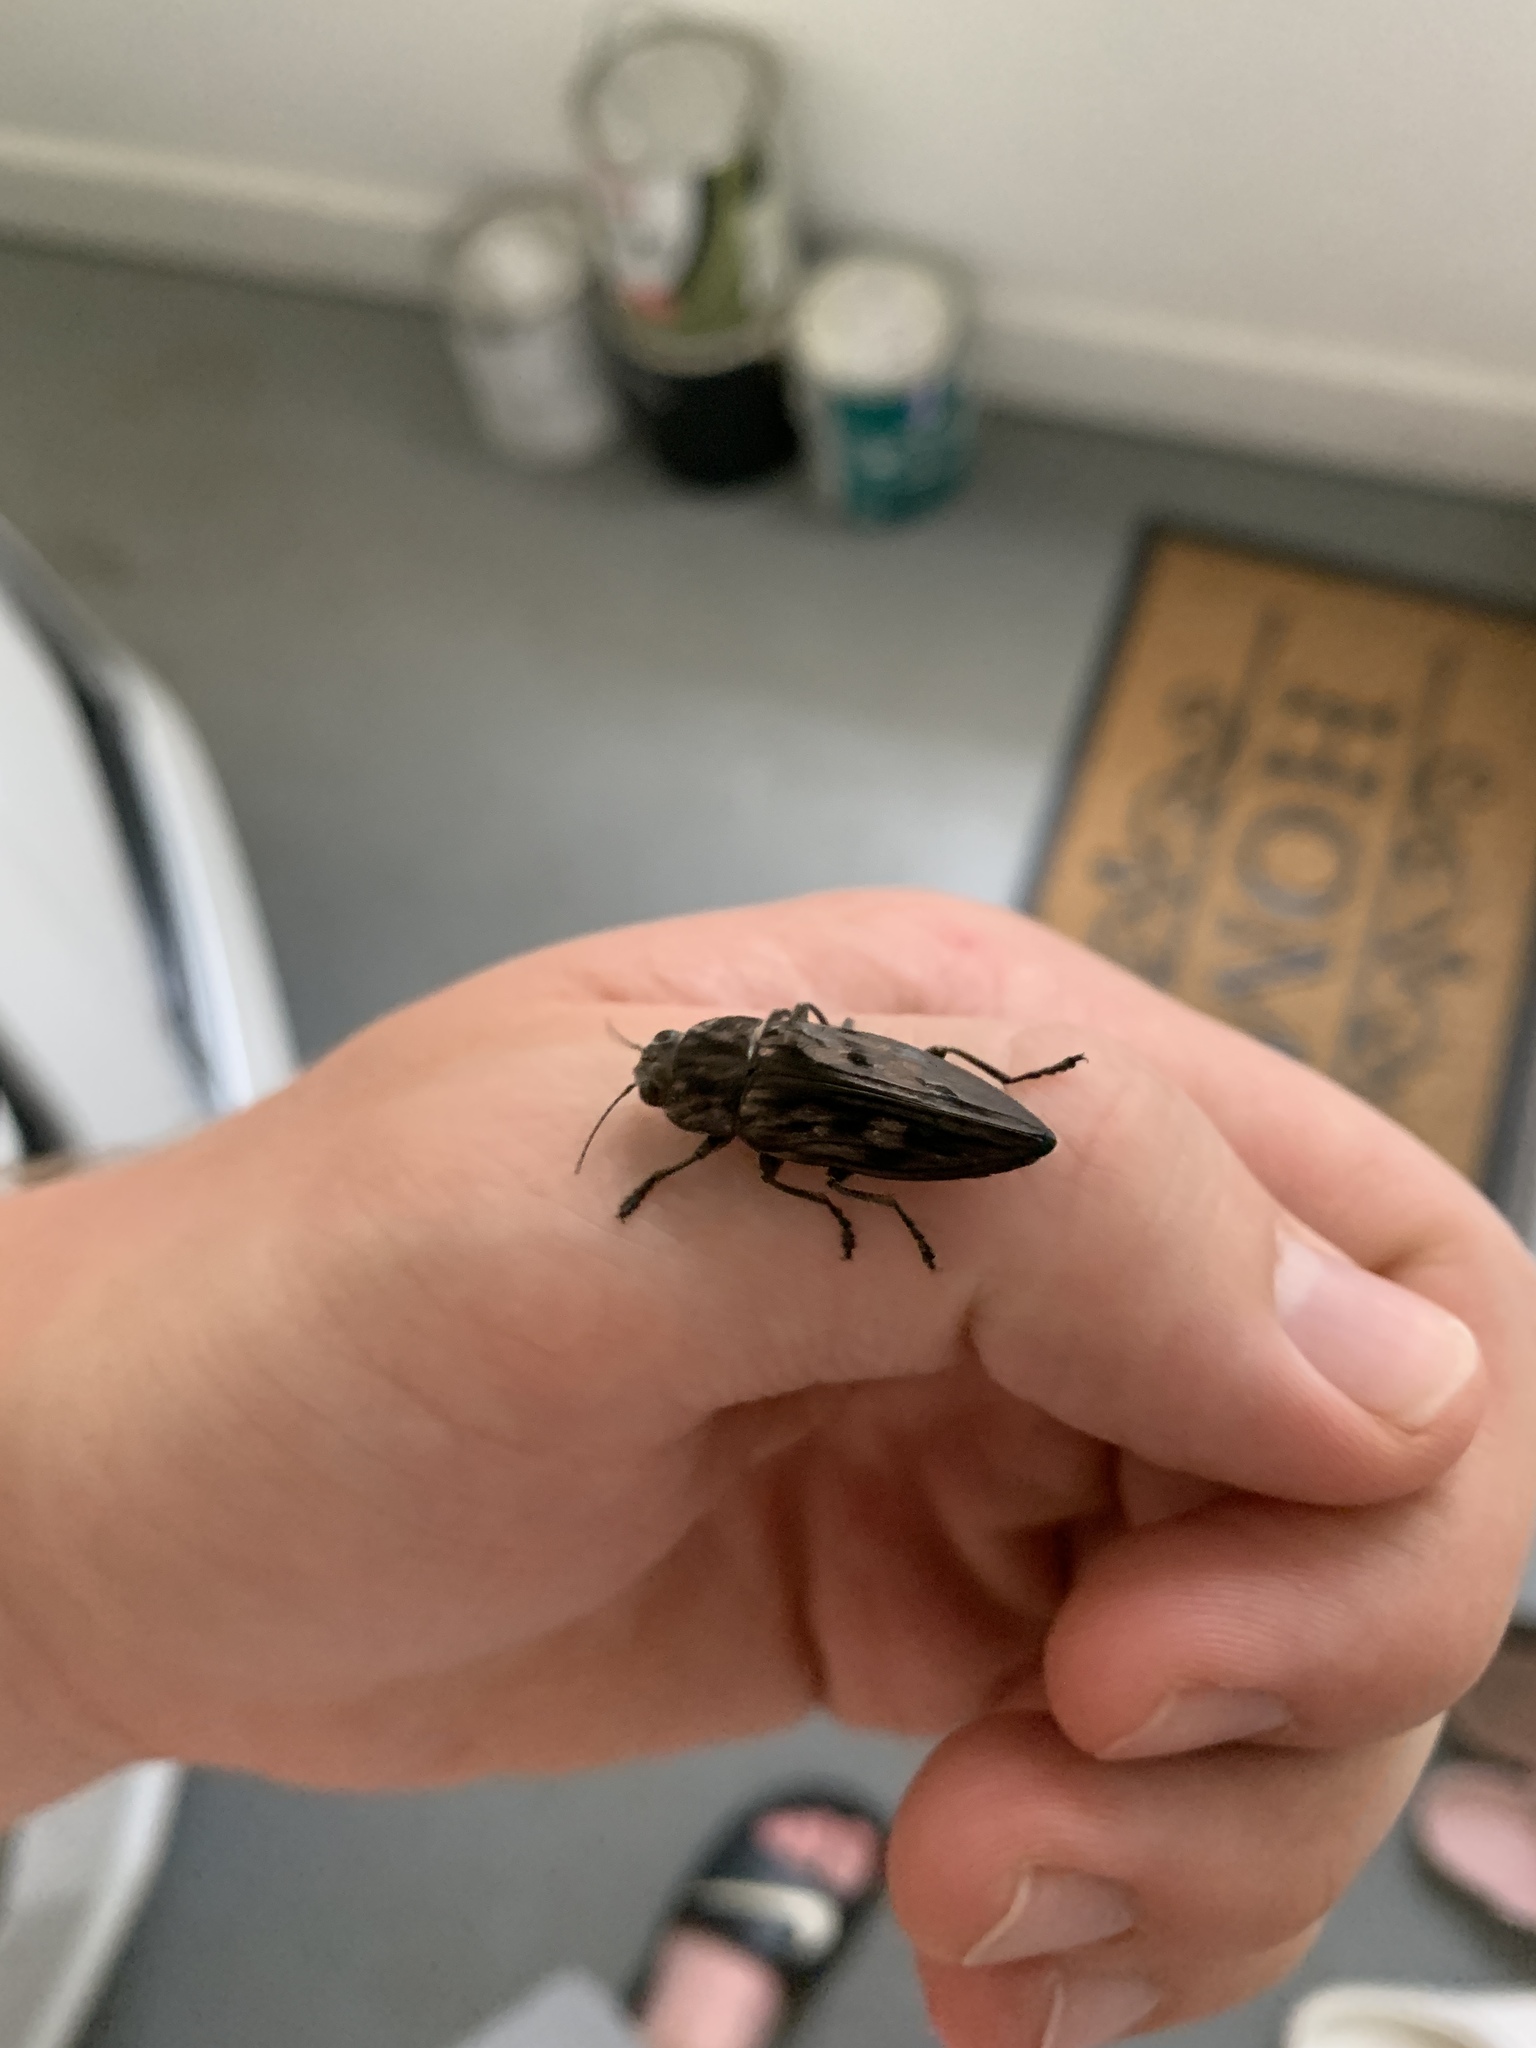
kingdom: Animalia
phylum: Arthropoda
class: Insecta
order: Coleoptera
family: Buprestidae
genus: Chalcophora
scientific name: Chalcophora virginiensis
